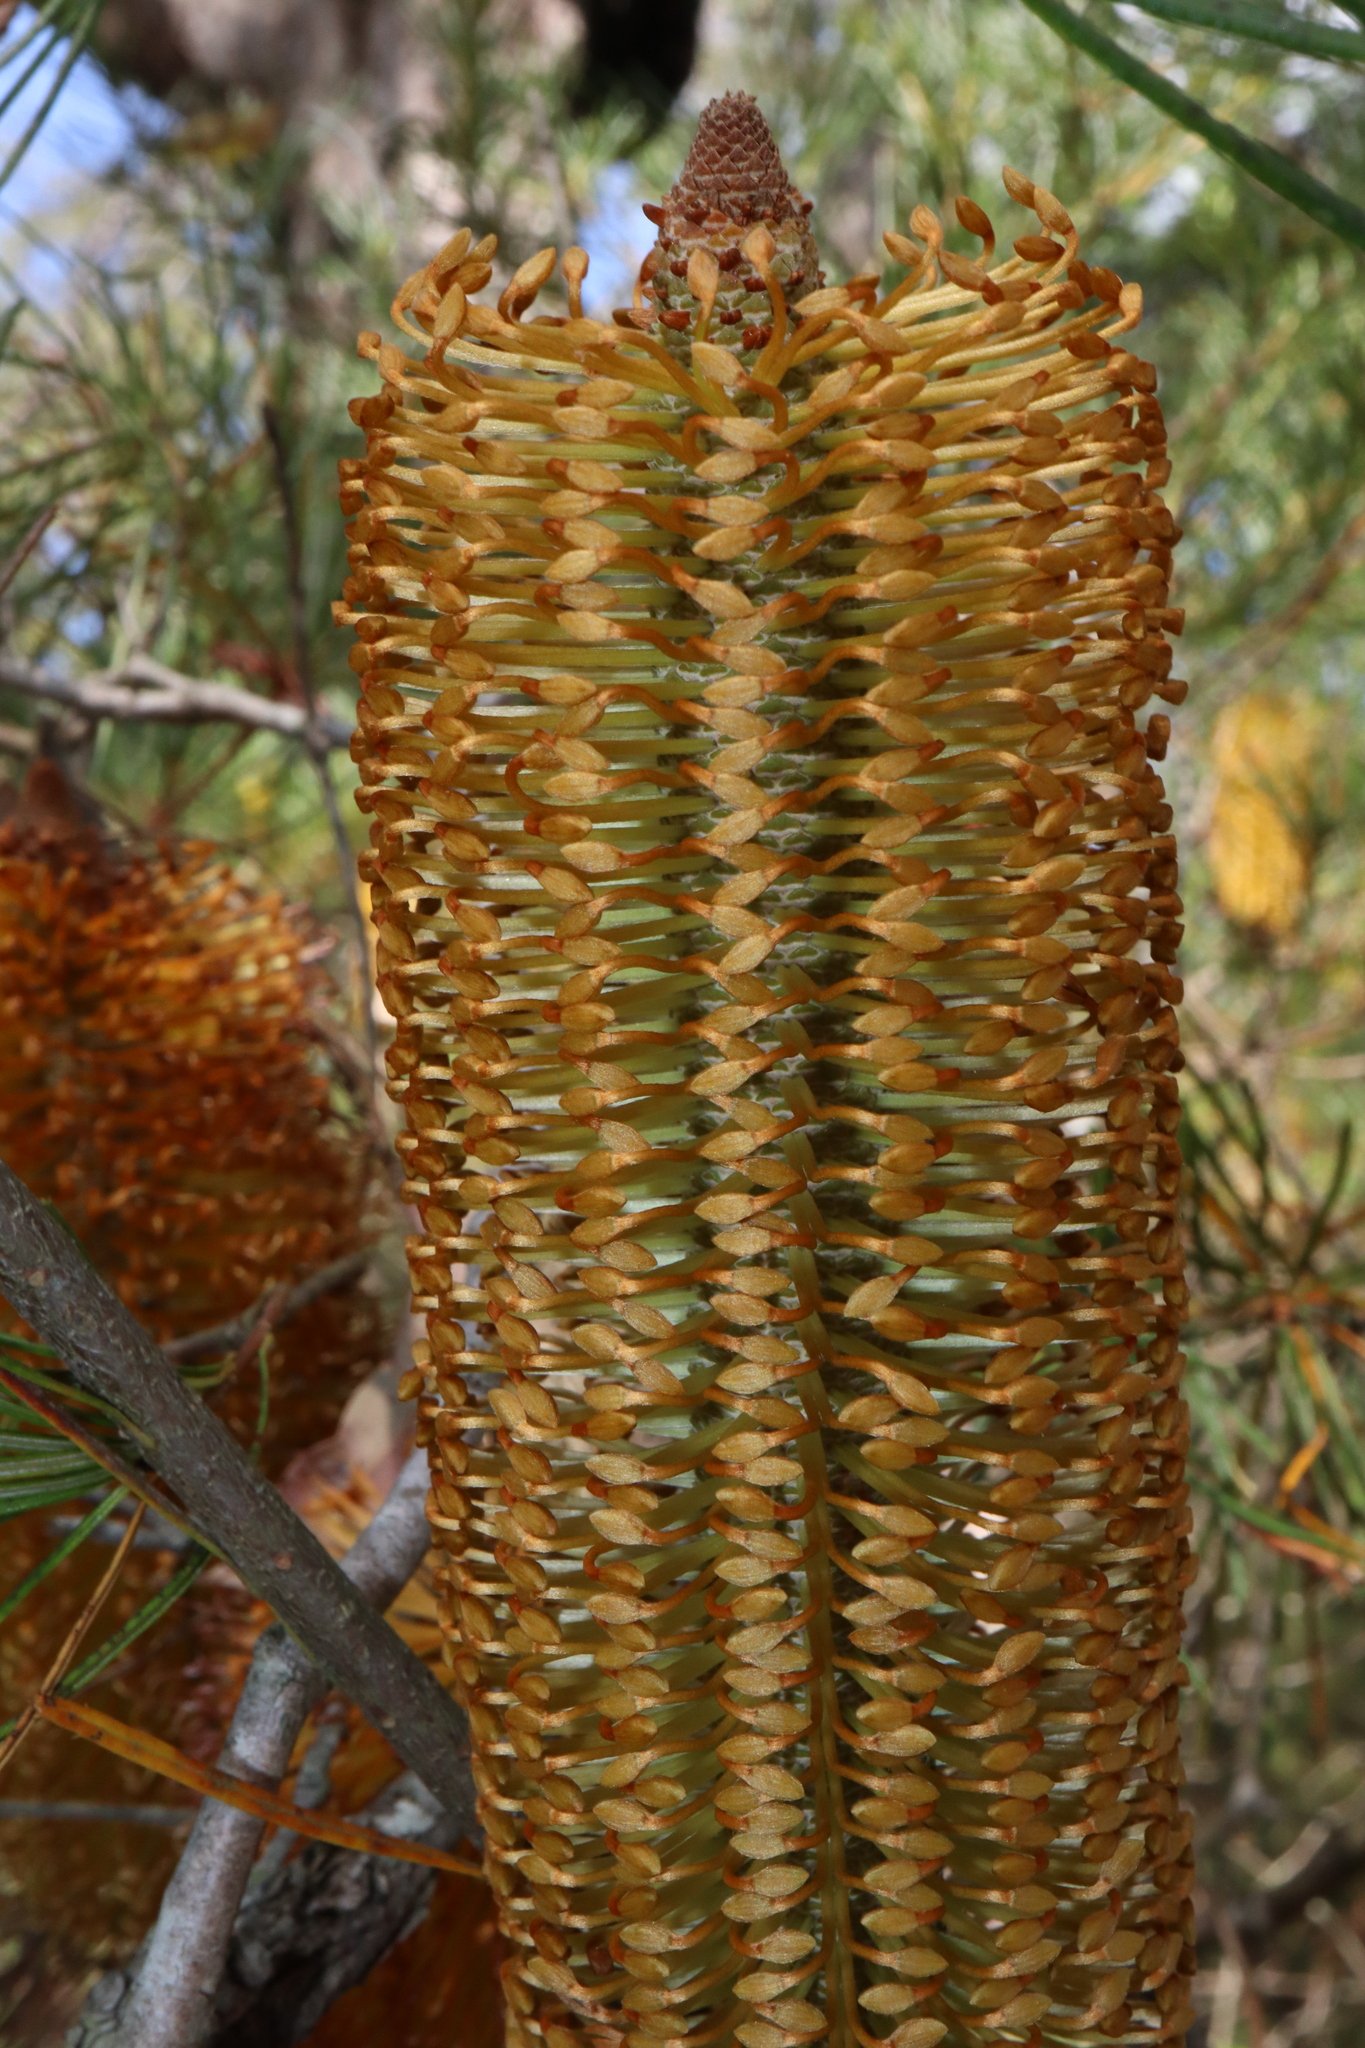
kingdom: Plantae
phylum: Tracheophyta
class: Magnoliopsida
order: Proteales
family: Proteaceae
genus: Banksia
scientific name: Banksia spinulosa
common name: Hairpin banksia
